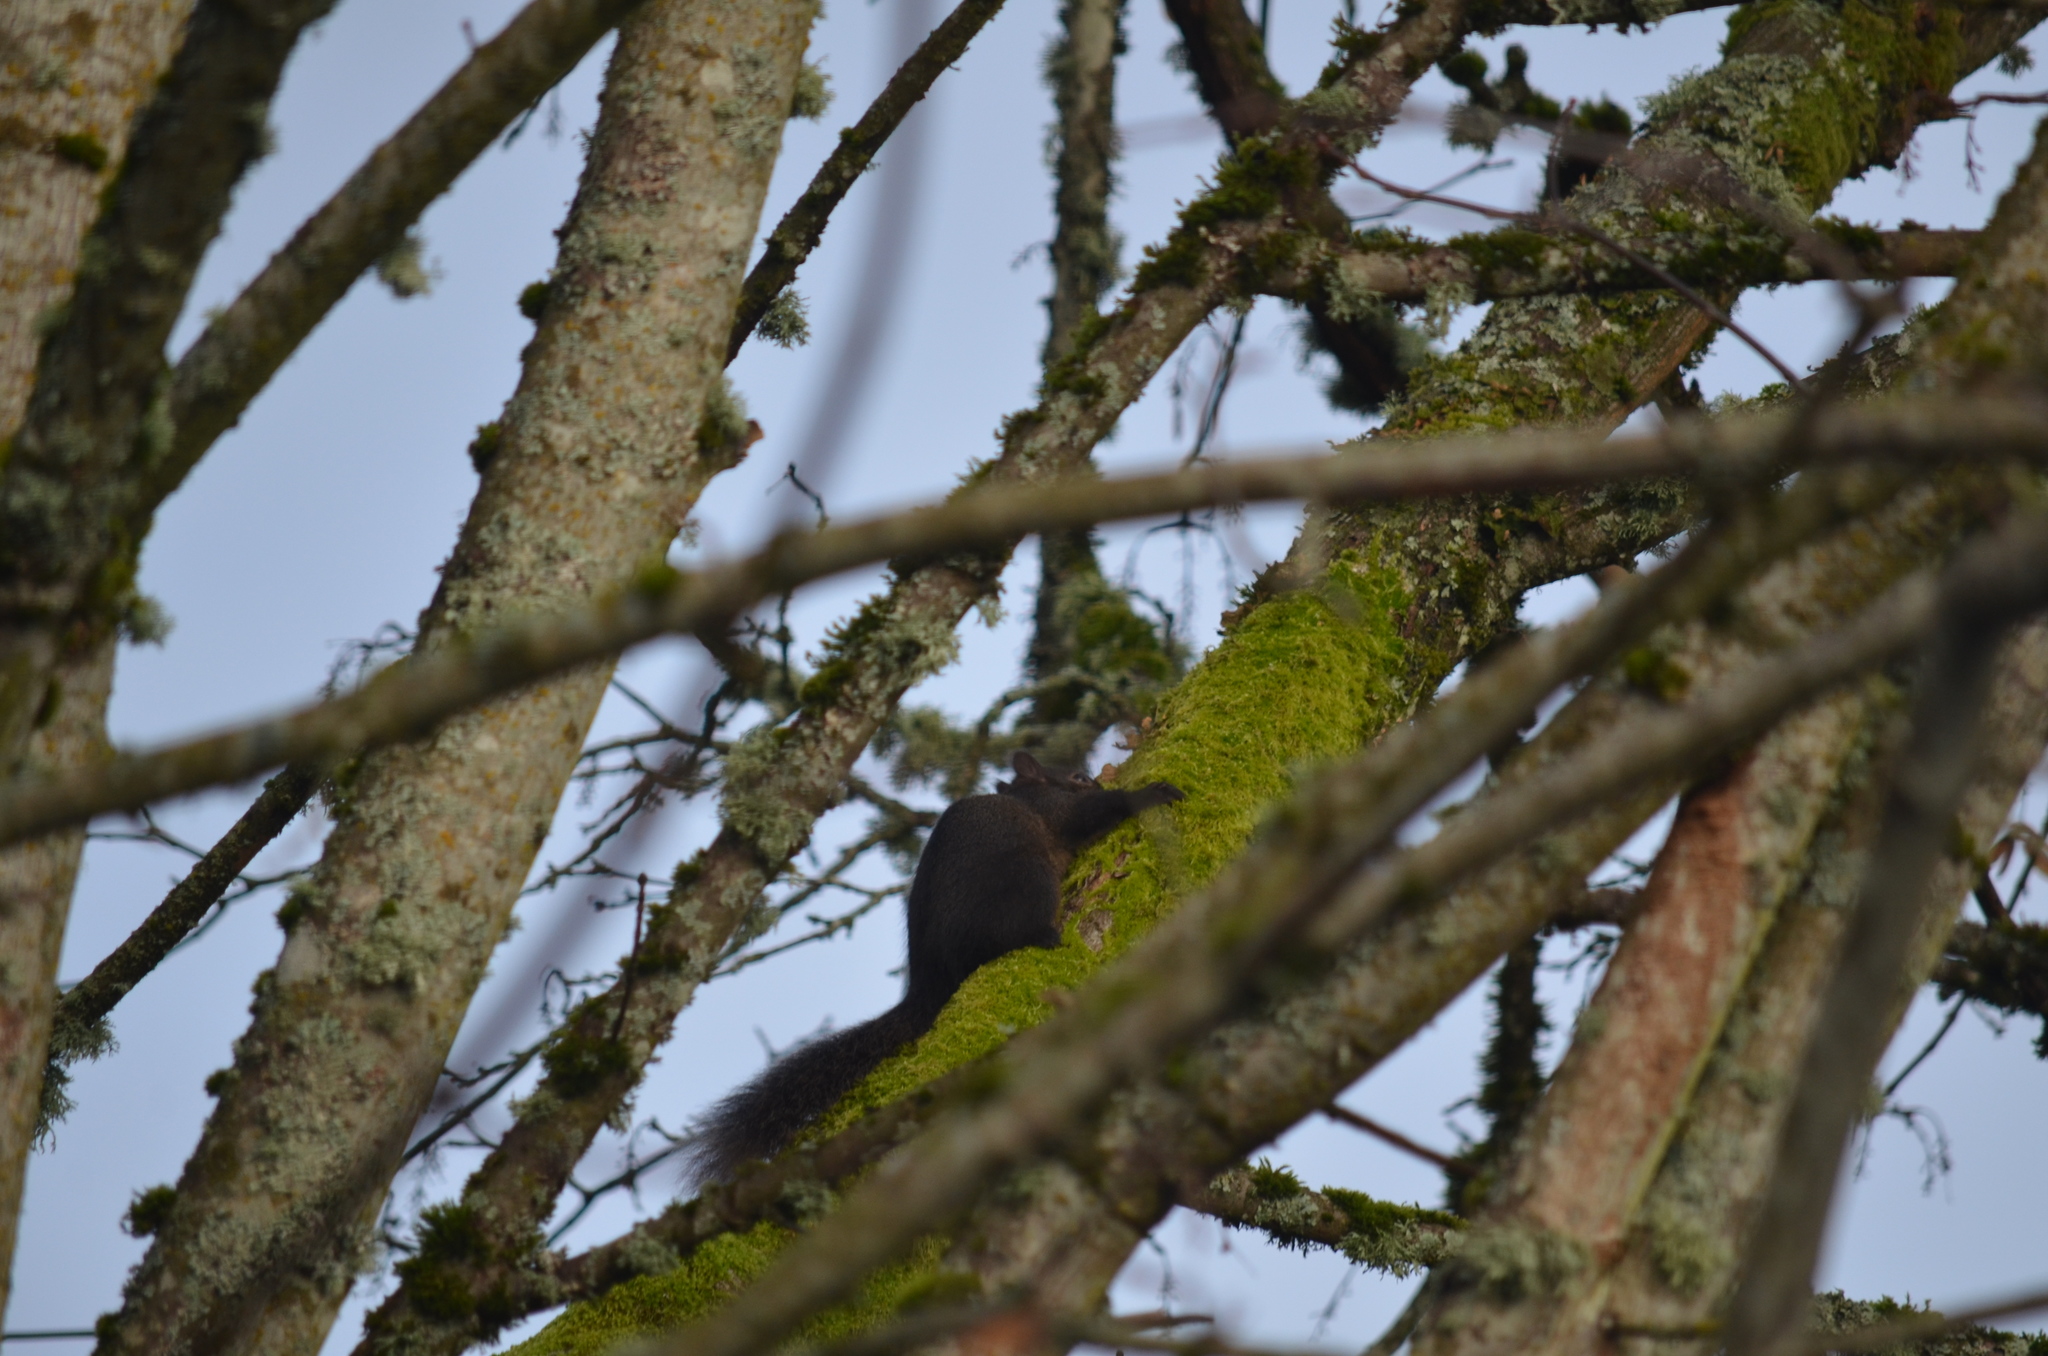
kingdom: Animalia
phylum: Chordata
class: Mammalia
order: Rodentia
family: Sciuridae
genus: Sciurus
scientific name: Sciurus carolinensis
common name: Eastern gray squirrel
